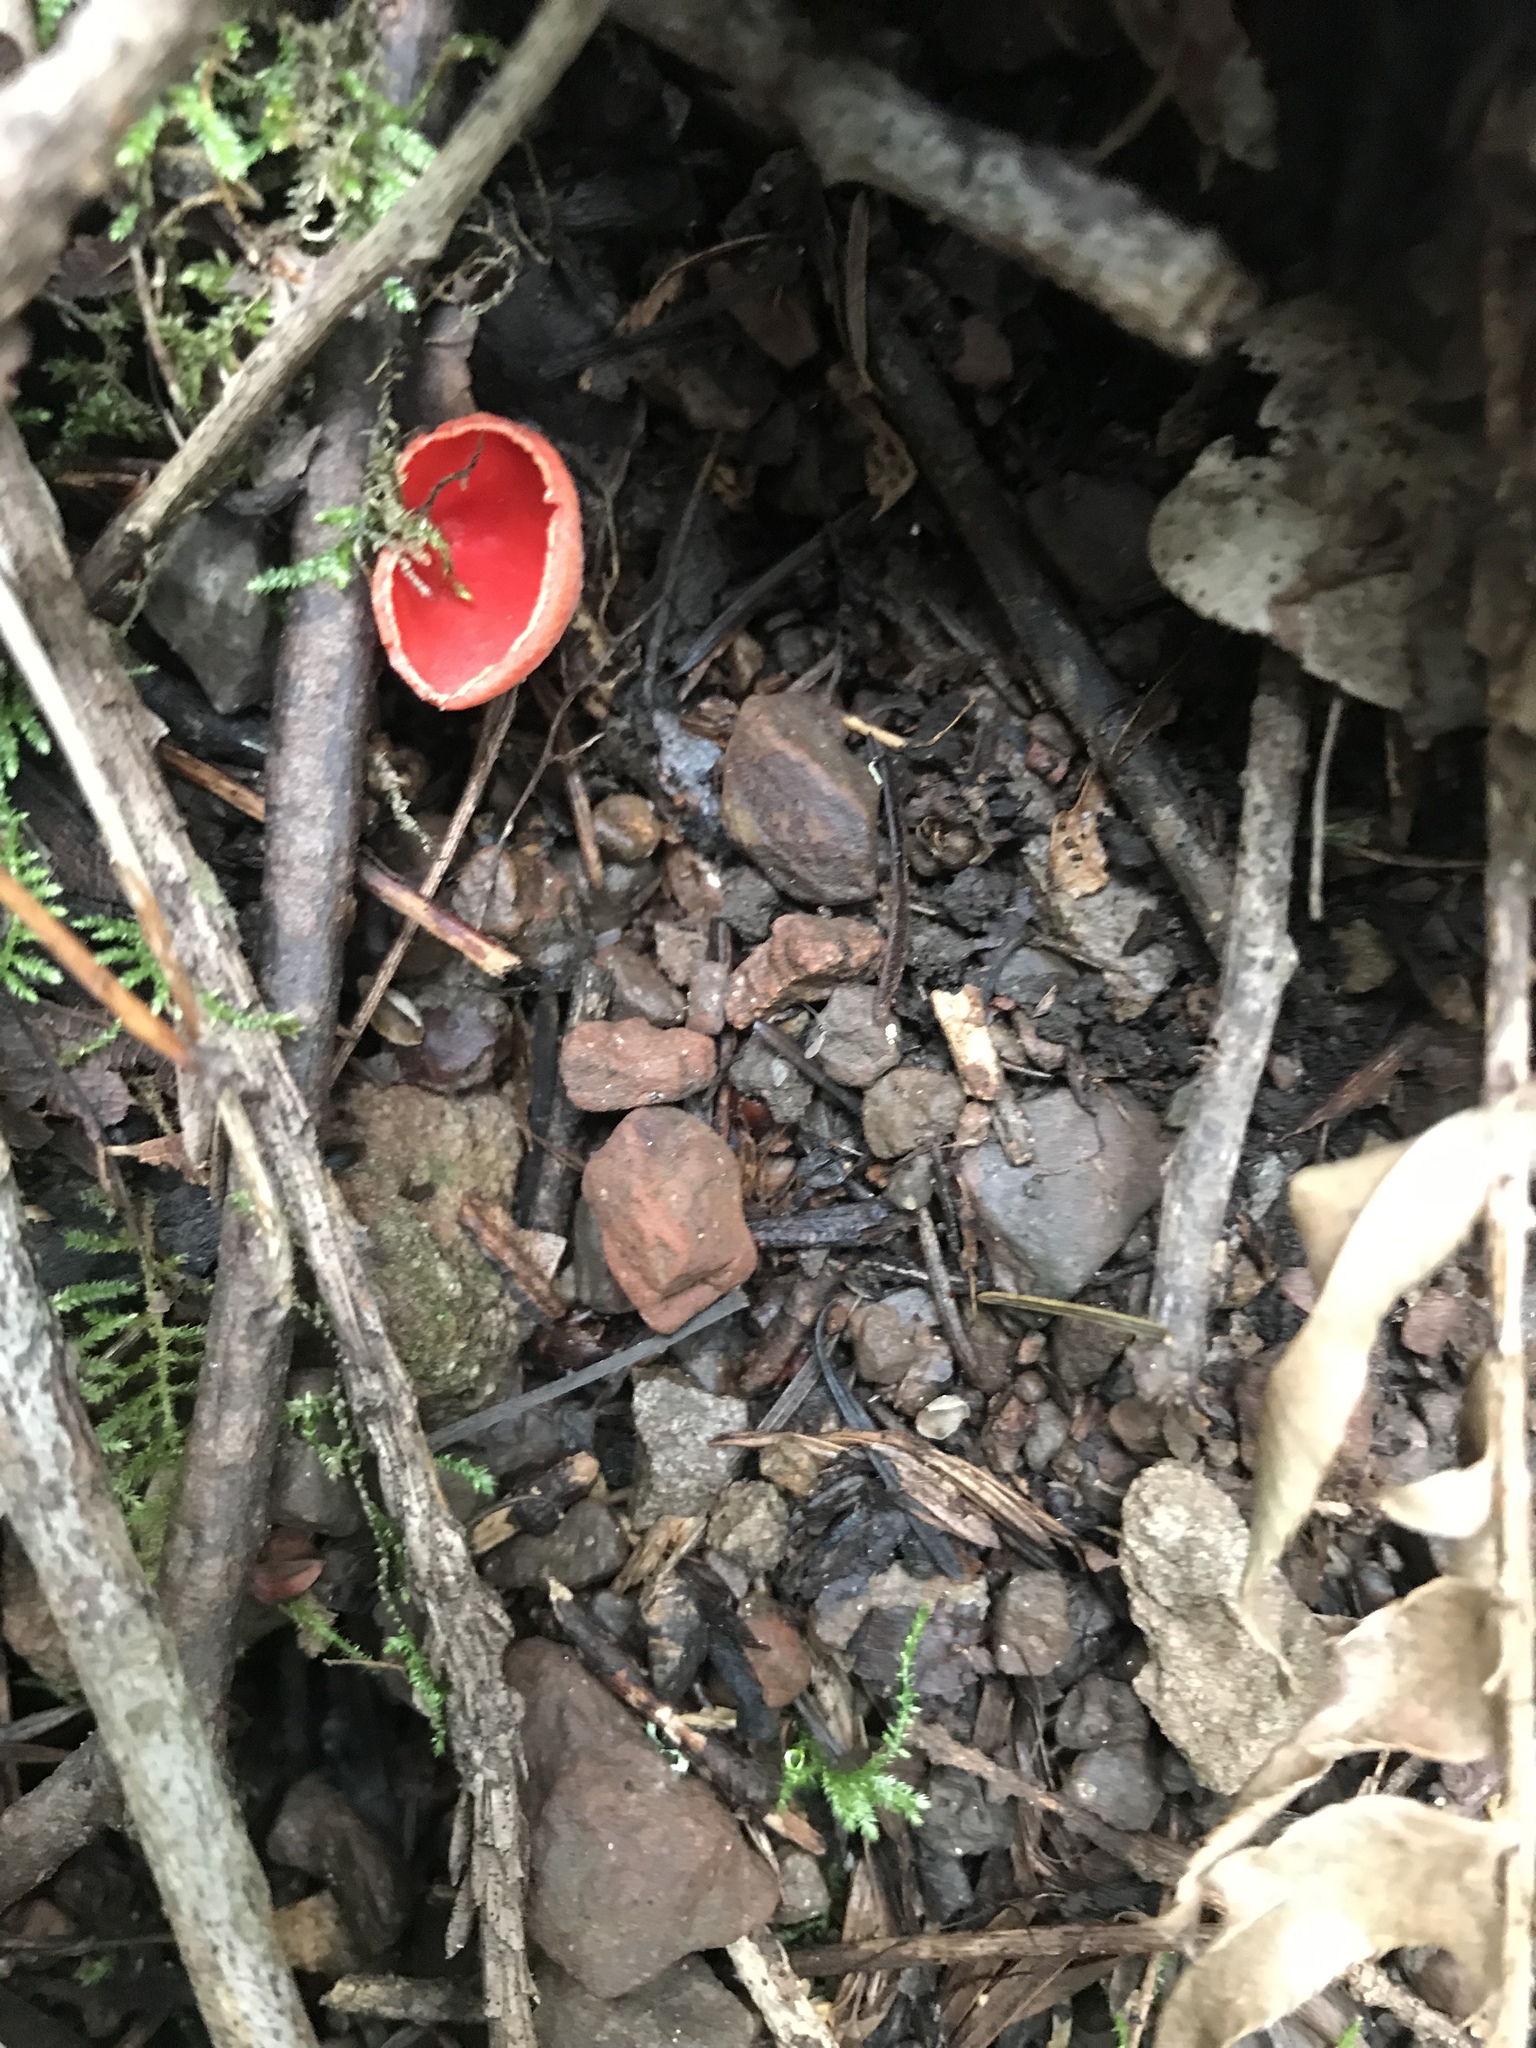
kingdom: Fungi
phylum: Ascomycota
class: Pezizomycetes
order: Pezizales
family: Sarcoscyphaceae
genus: Sarcoscypha
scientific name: Sarcoscypha coccinea
